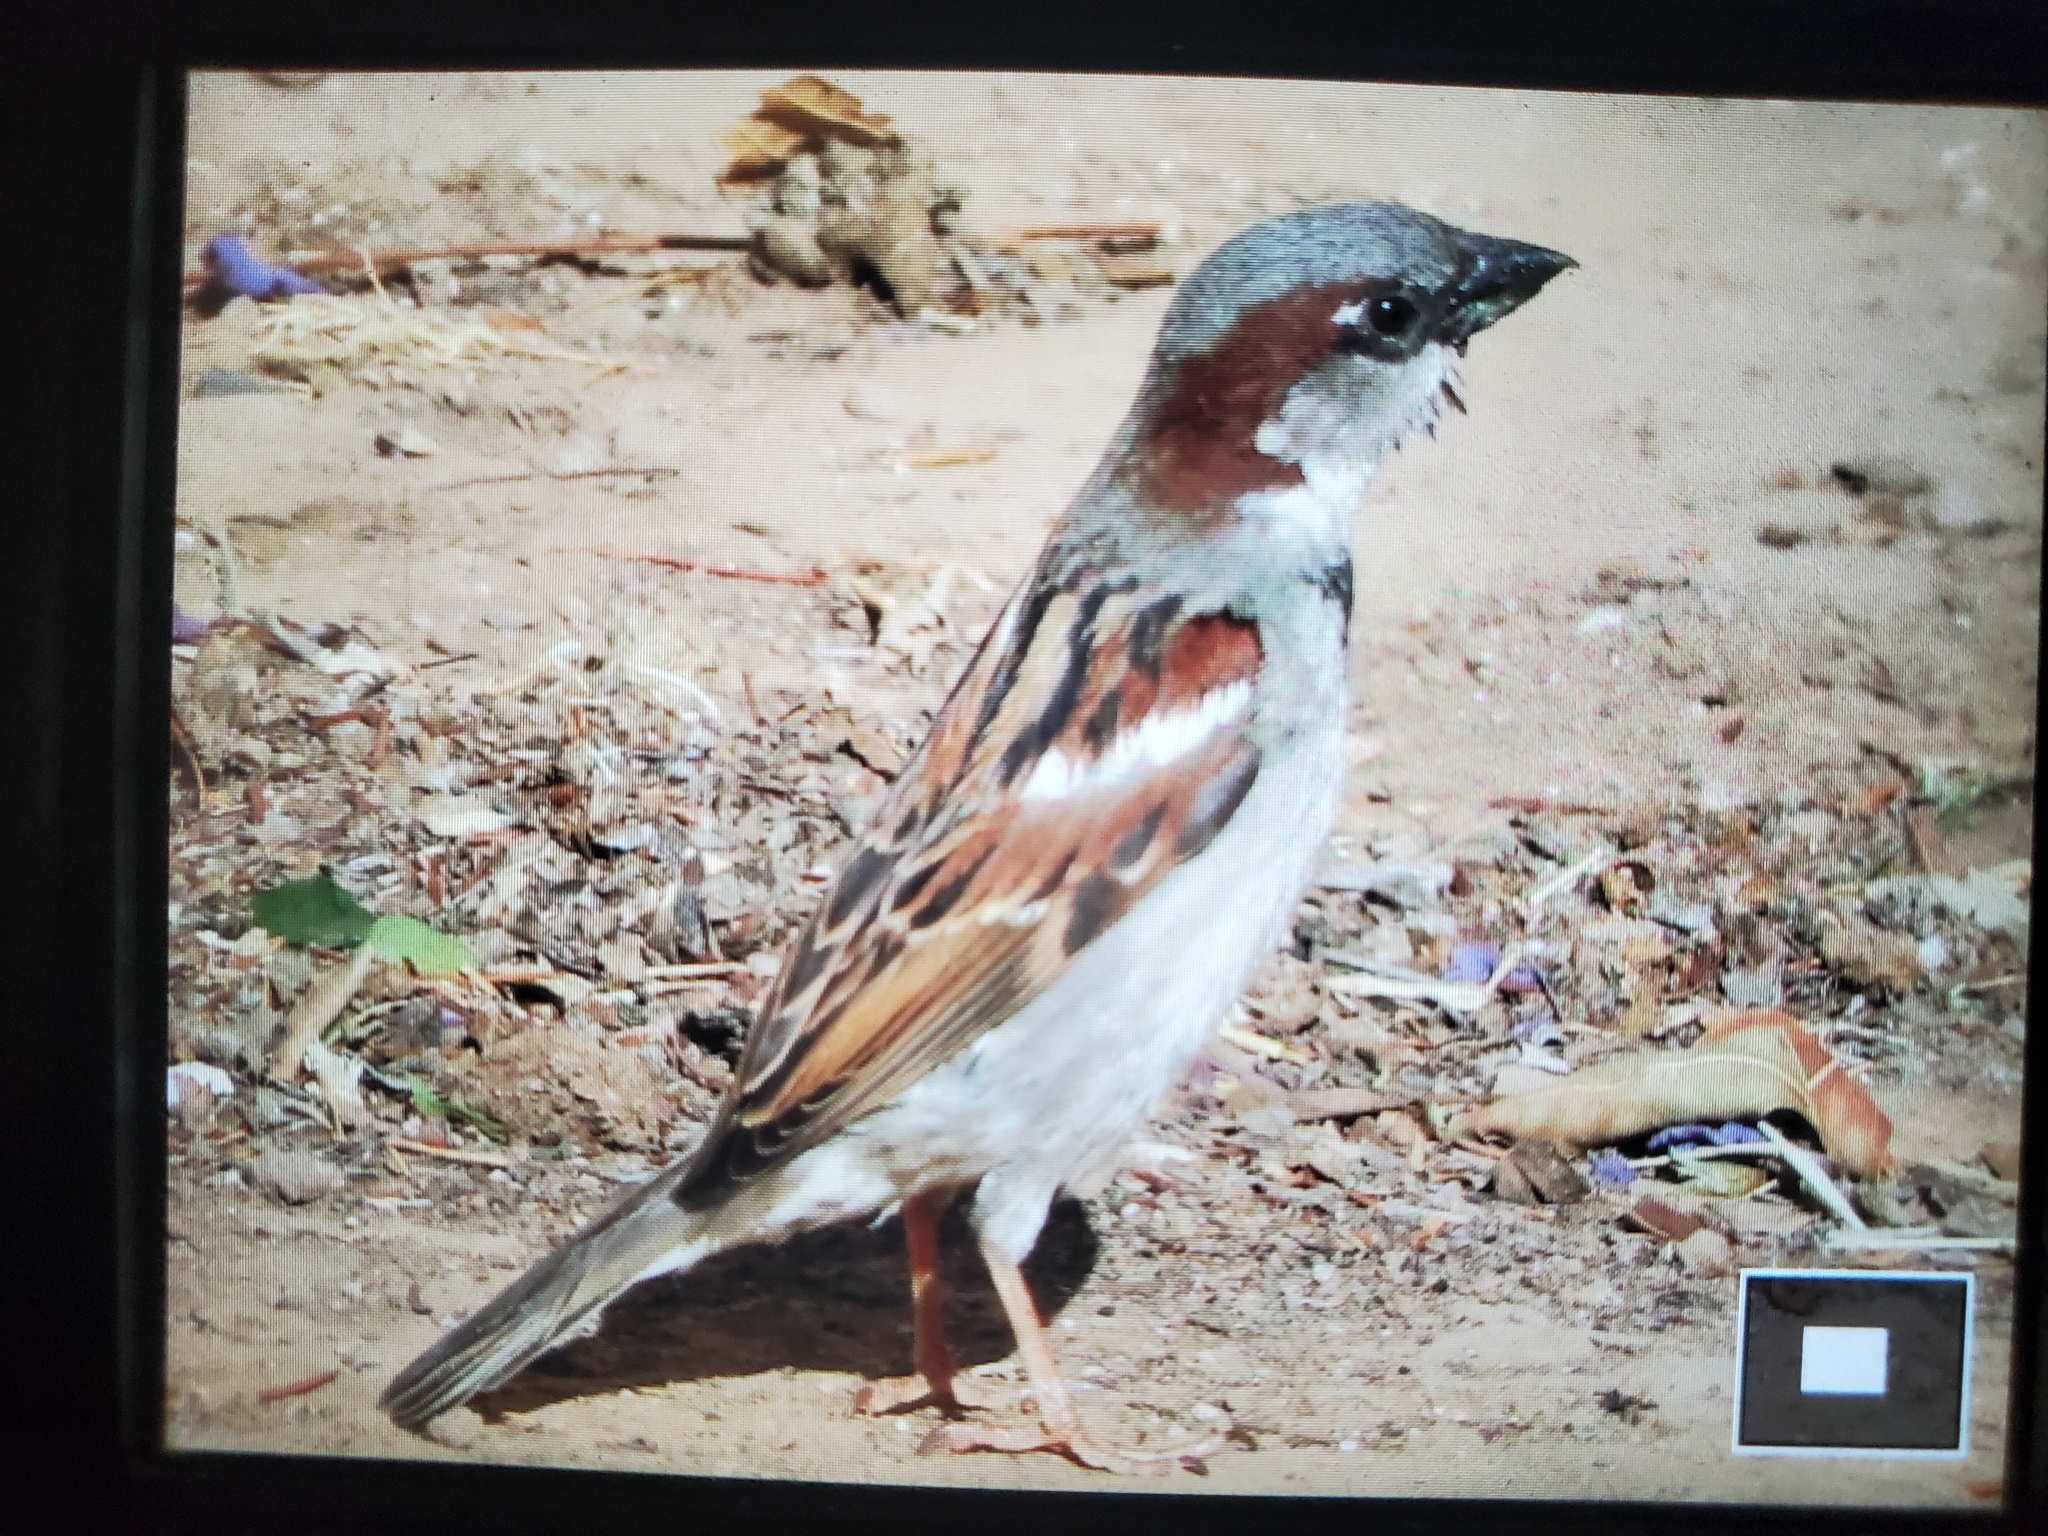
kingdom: Animalia
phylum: Chordata
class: Aves
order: Passeriformes
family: Passeridae
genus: Passer
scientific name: Passer domesticus
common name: House sparrow
